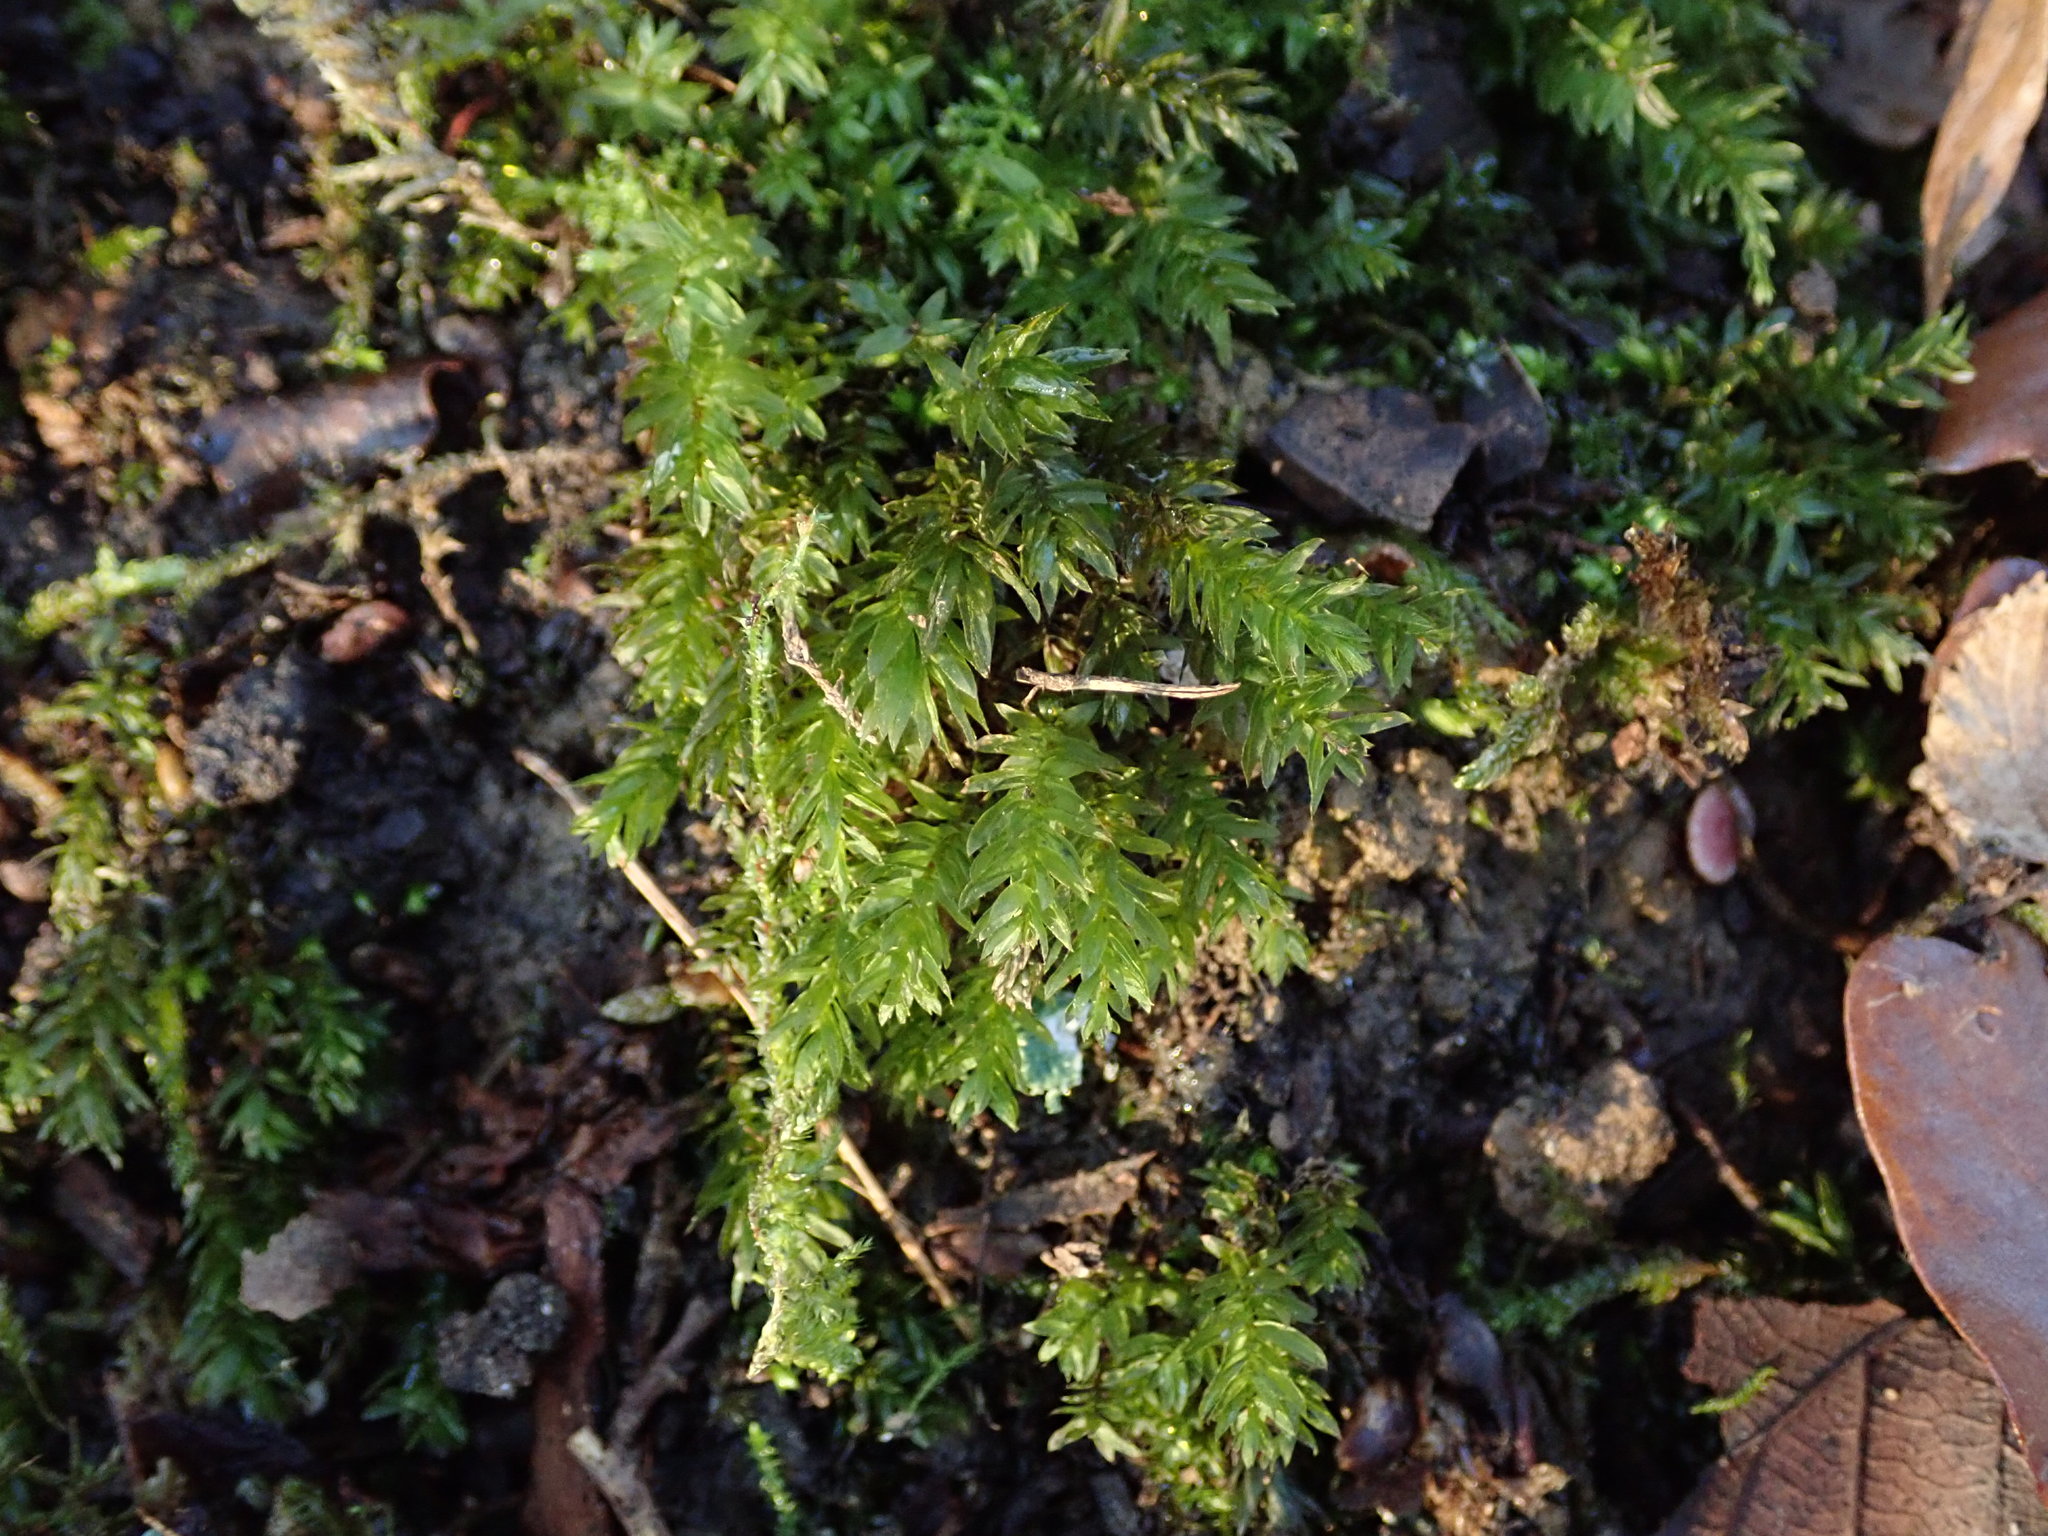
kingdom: Plantae
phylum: Bryophyta
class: Bryopsida
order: Bryales
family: Mniaceae
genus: Mnium
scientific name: Mnium hornum
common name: Swan's-neck leafy moss
